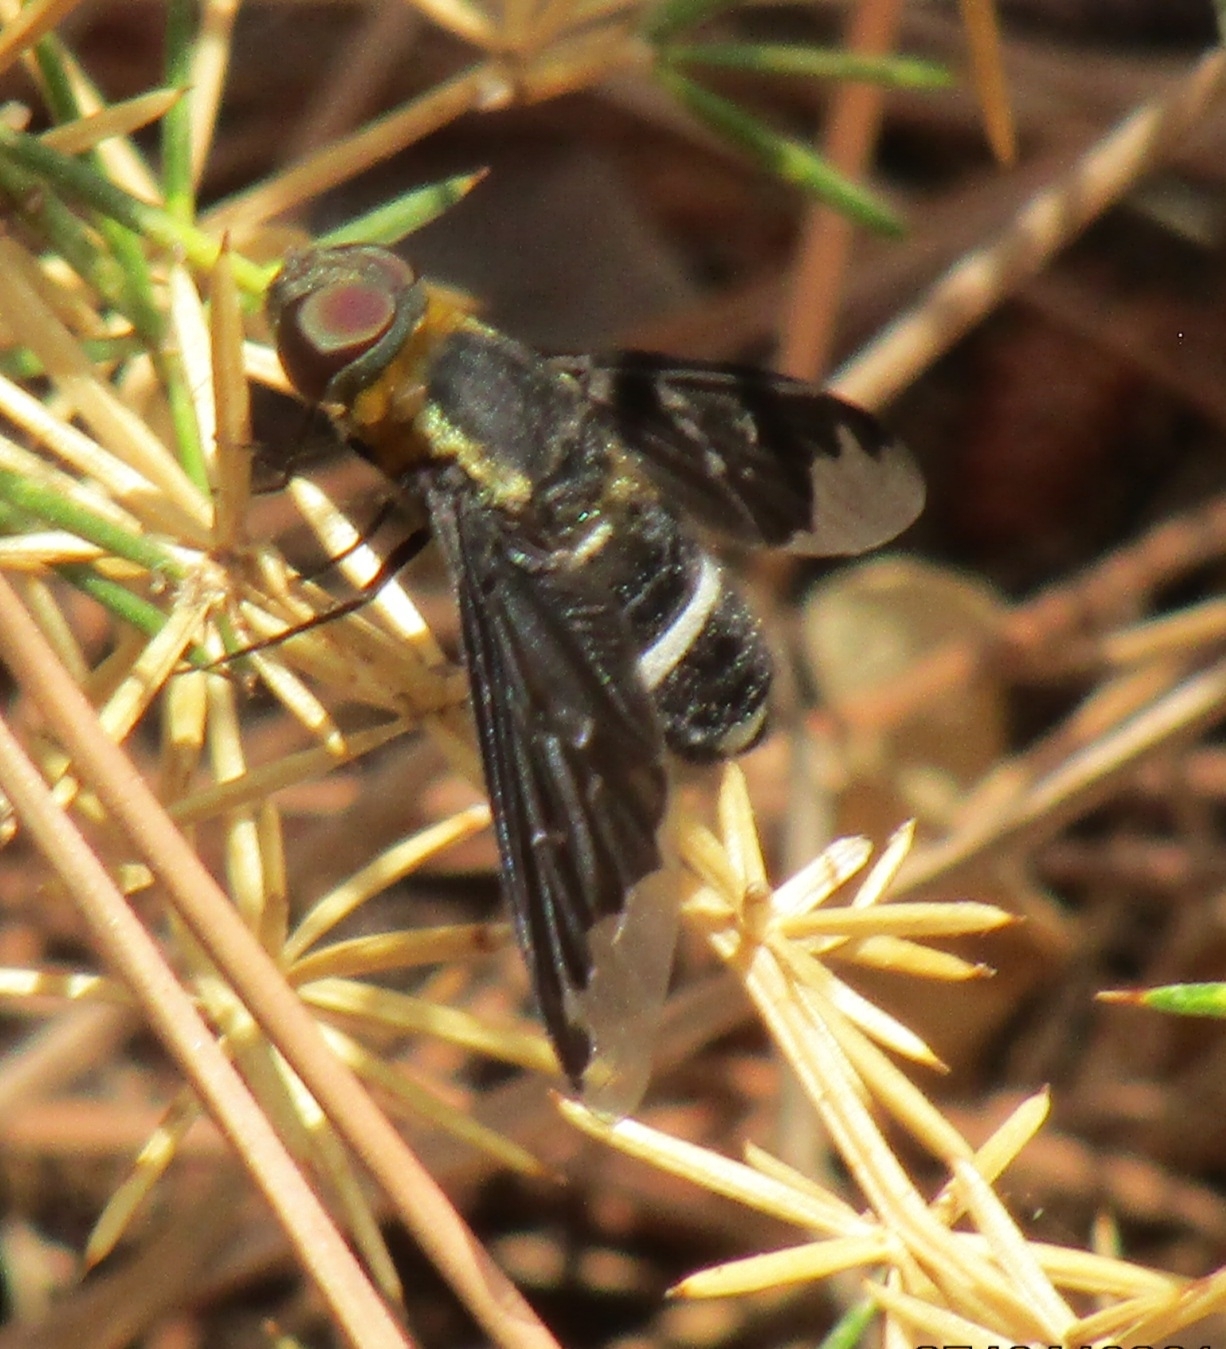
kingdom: Animalia
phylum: Arthropoda
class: Insecta
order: Diptera
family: Bombyliidae
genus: Hemipenthes
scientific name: Hemipenthes velutina
